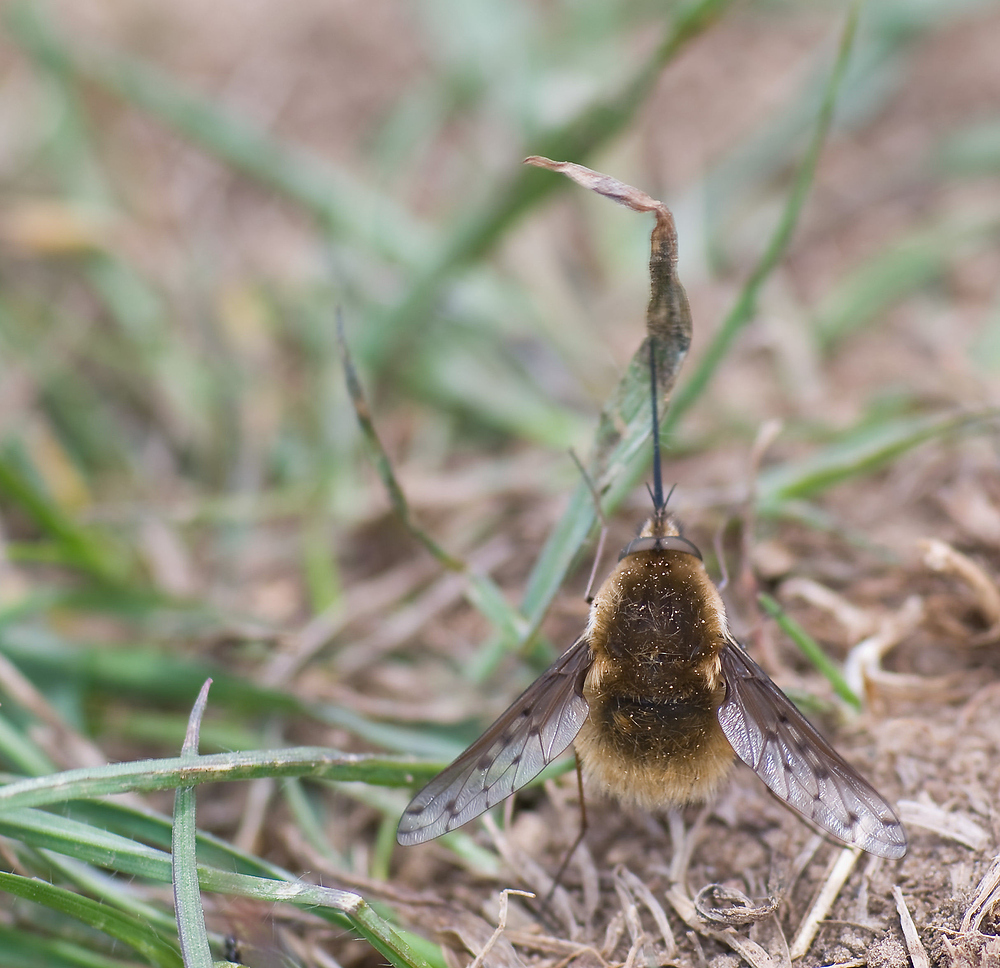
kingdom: Animalia
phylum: Arthropoda
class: Insecta
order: Diptera
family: Bombyliidae
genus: Bombylius
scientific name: Bombylius medius
